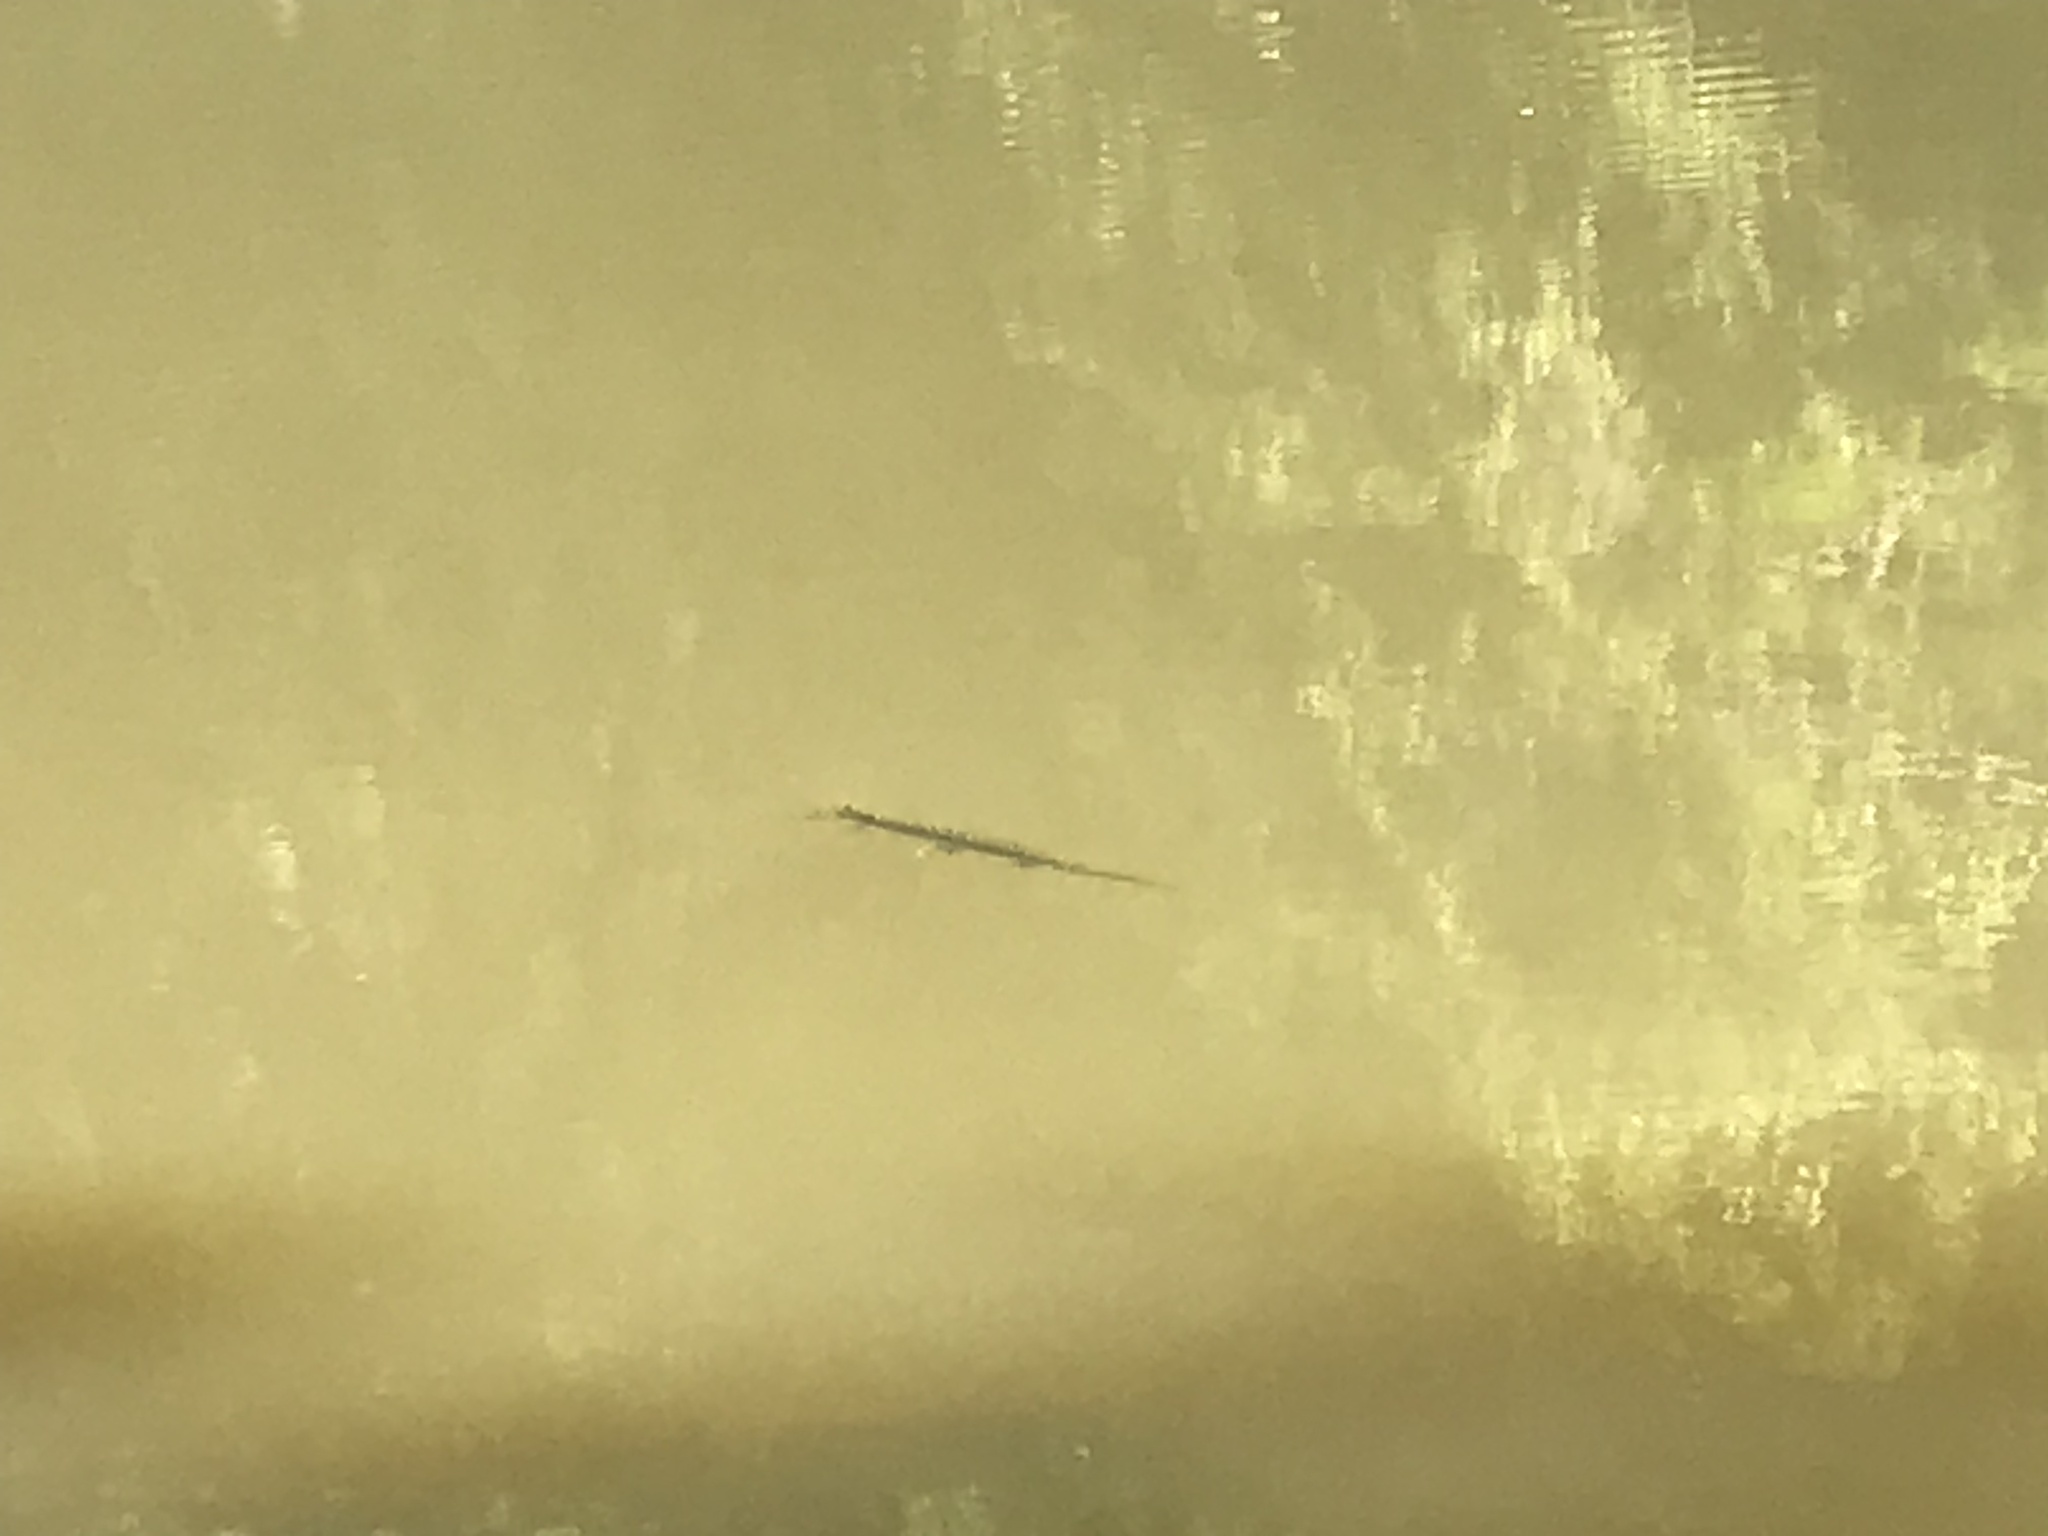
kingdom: Animalia
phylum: Chordata
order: Lepisosteiformes
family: Lepisosteidae
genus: Lepisosteus
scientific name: Lepisosteus osseus
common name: Longnose gar
